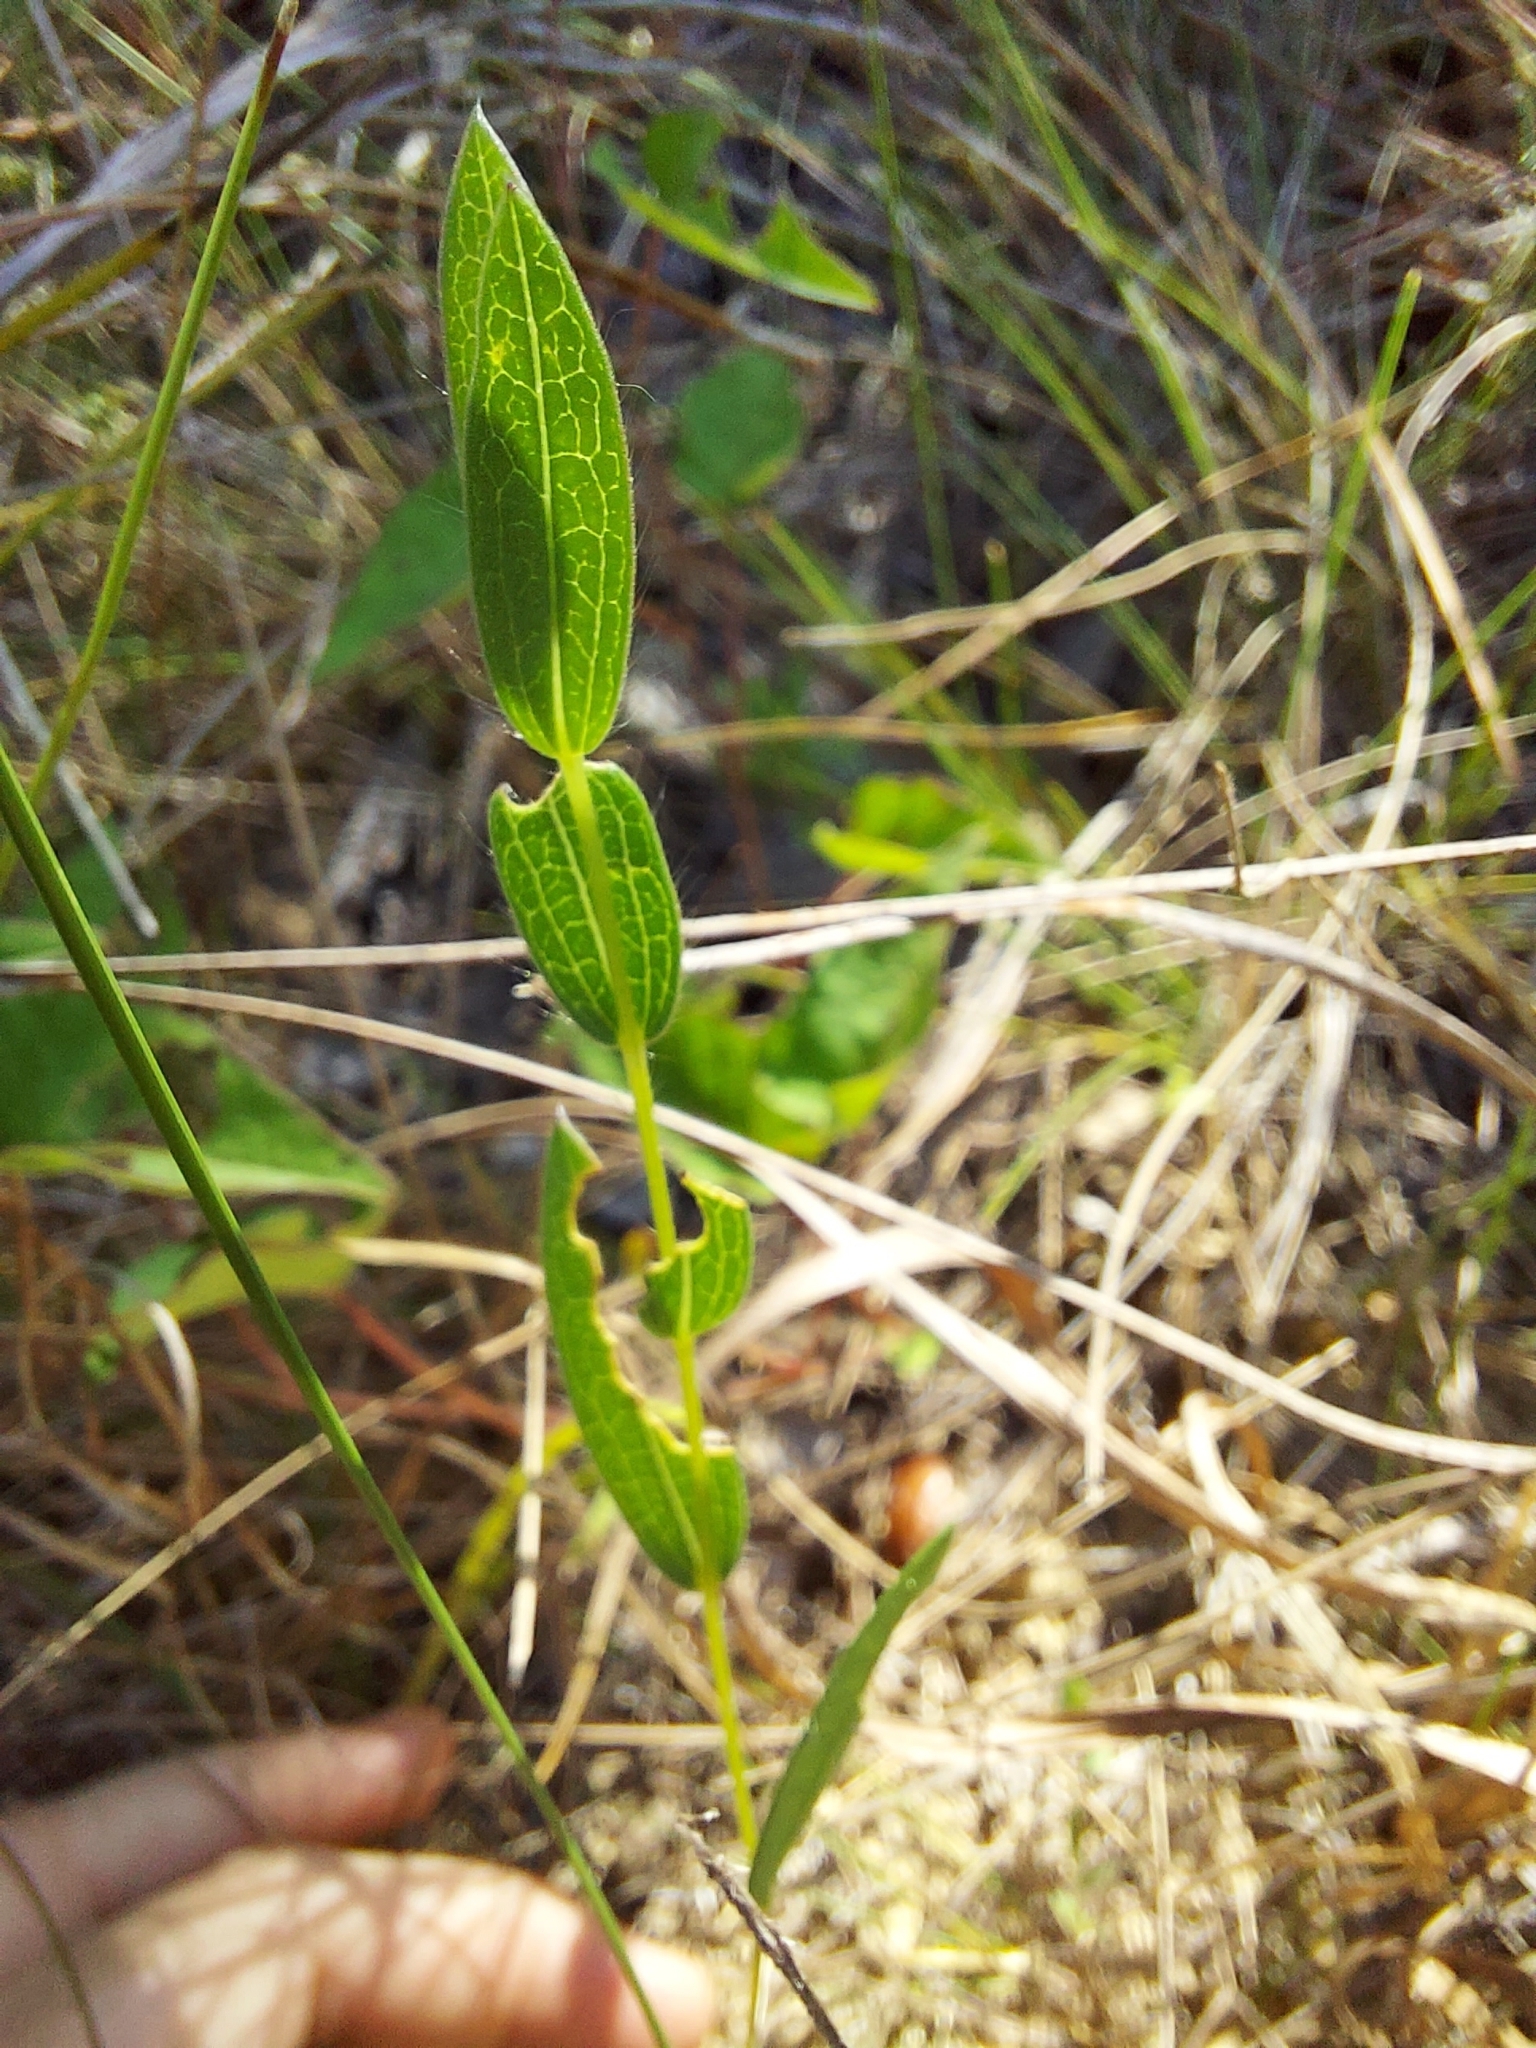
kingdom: Plantae
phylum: Tracheophyta
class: Magnoliopsida
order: Asterales
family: Asteraceae
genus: Symphyotrichum
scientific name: Symphyotrichum concolor
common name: Eastern silver aster
